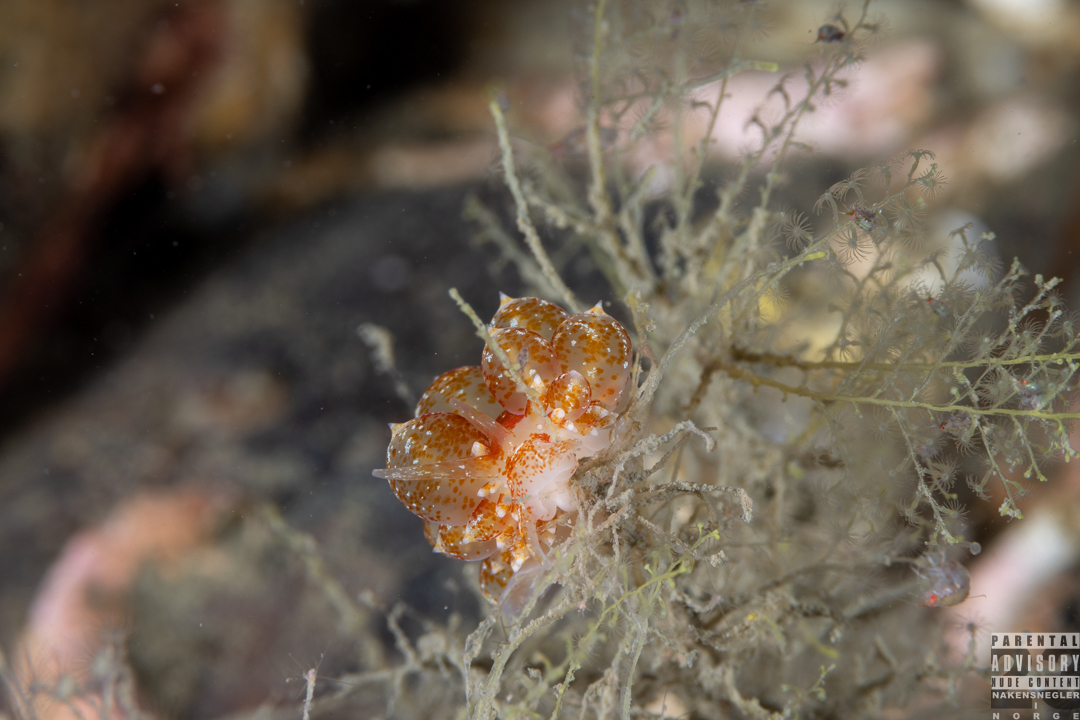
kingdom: Animalia
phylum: Mollusca
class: Gastropoda
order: Nudibranchia
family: Eubranchidae
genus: Amphorina
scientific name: Amphorina pallida
